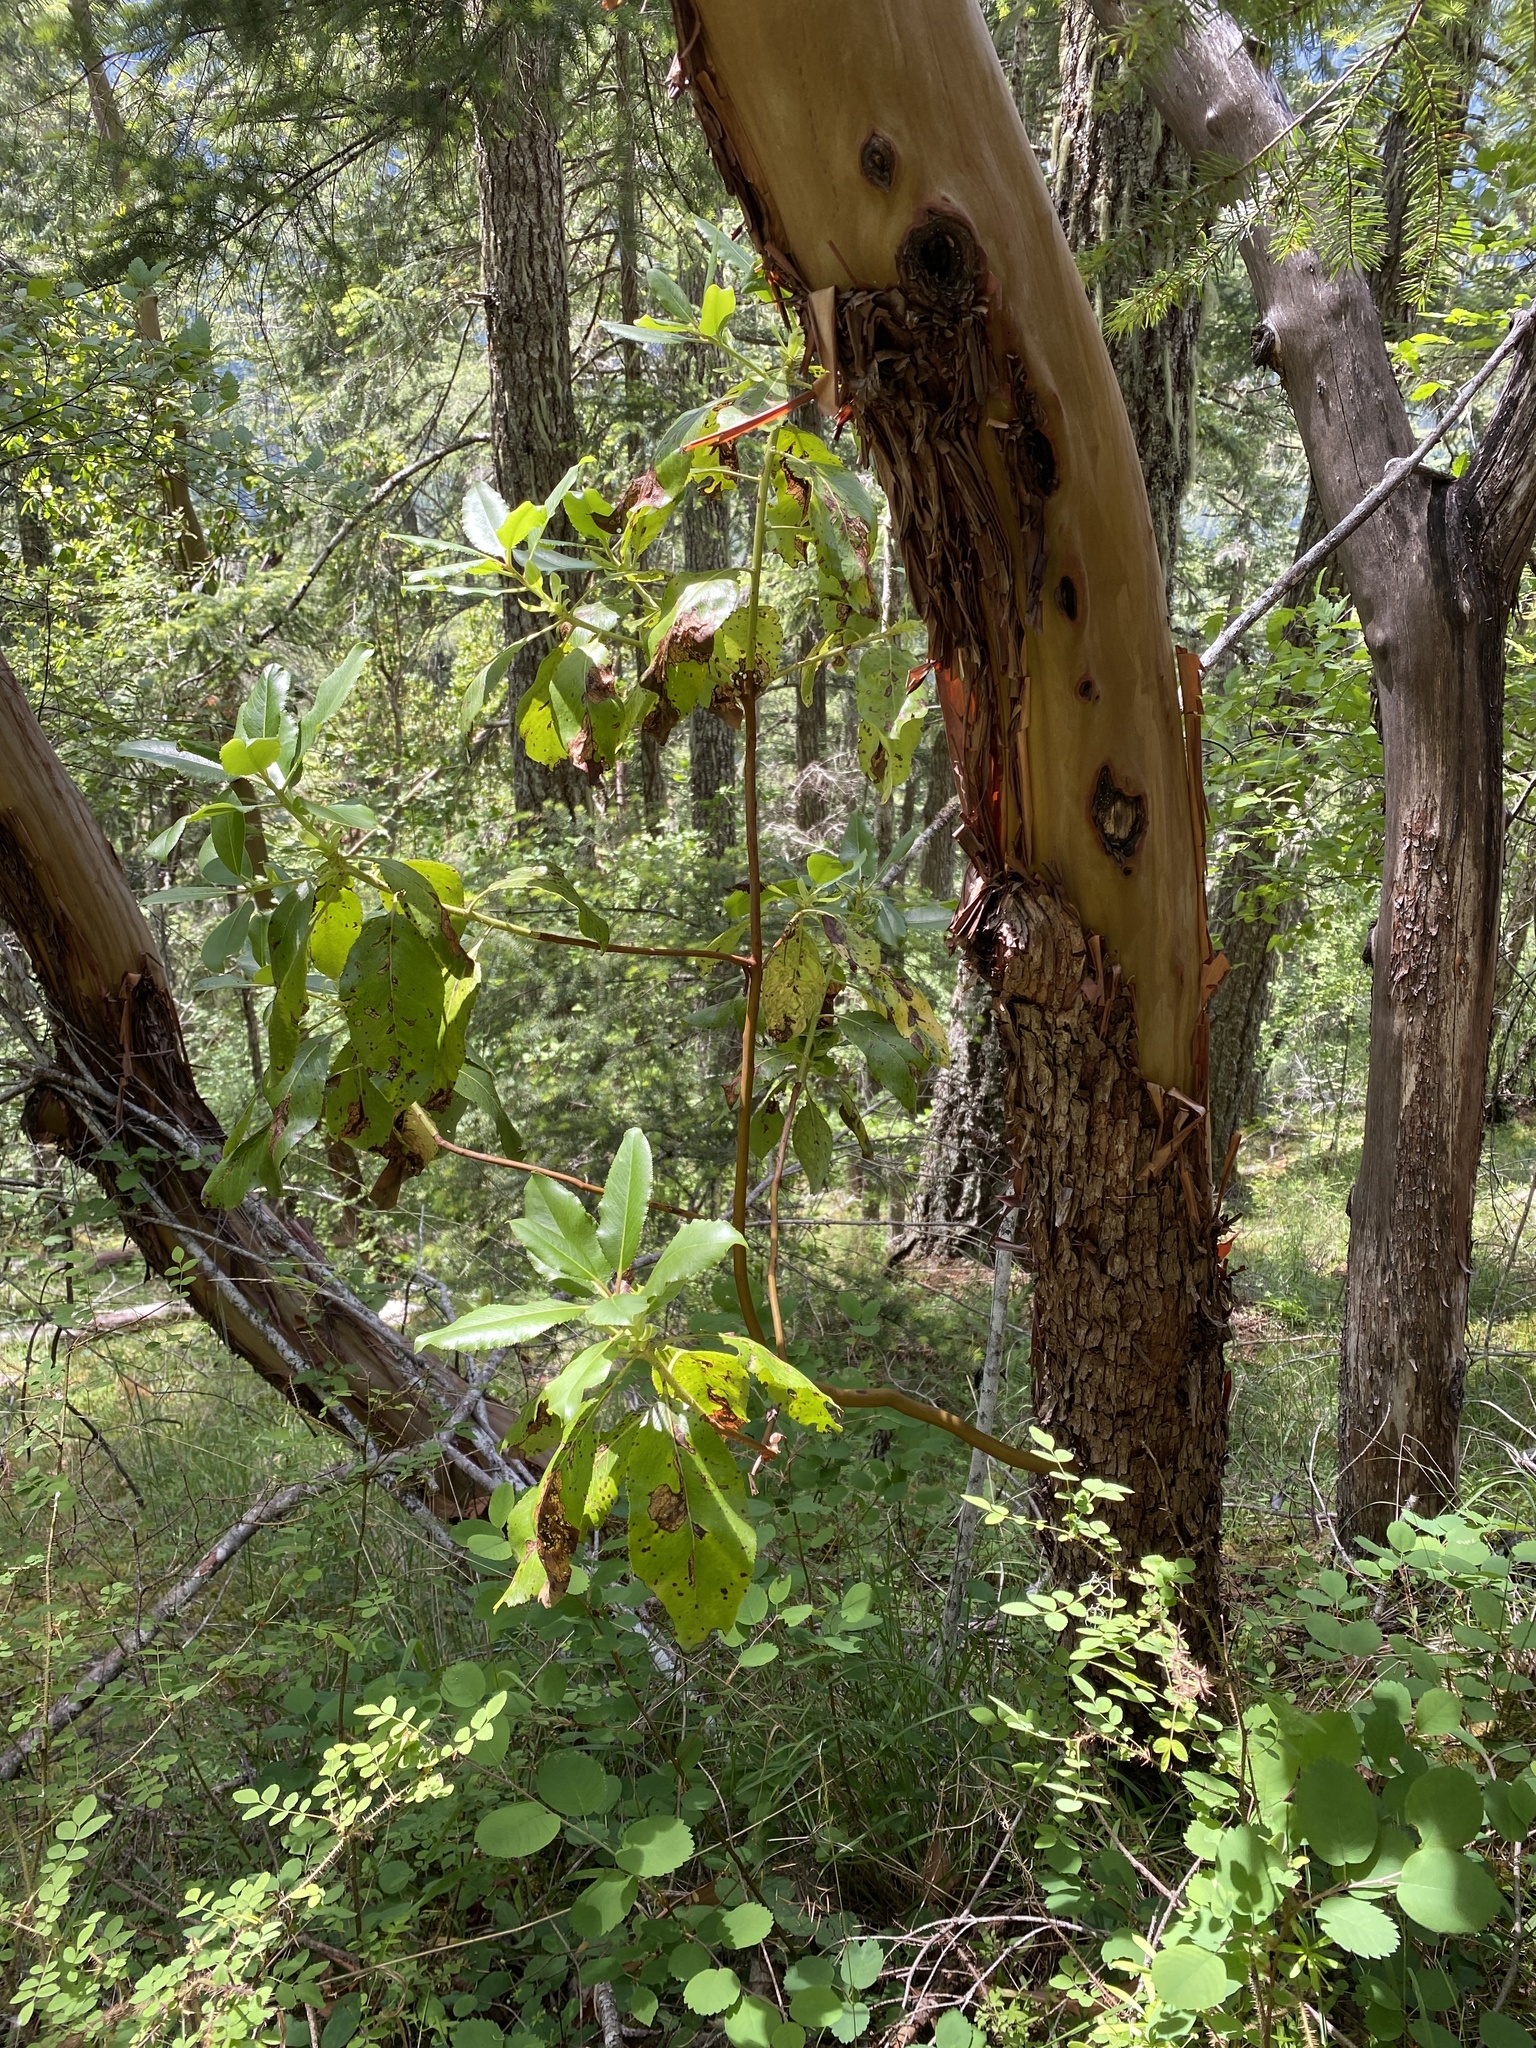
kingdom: Plantae
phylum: Tracheophyta
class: Magnoliopsida
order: Ericales
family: Ericaceae
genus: Arbutus
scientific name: Arbutus menziesii
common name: Pacific madrone
